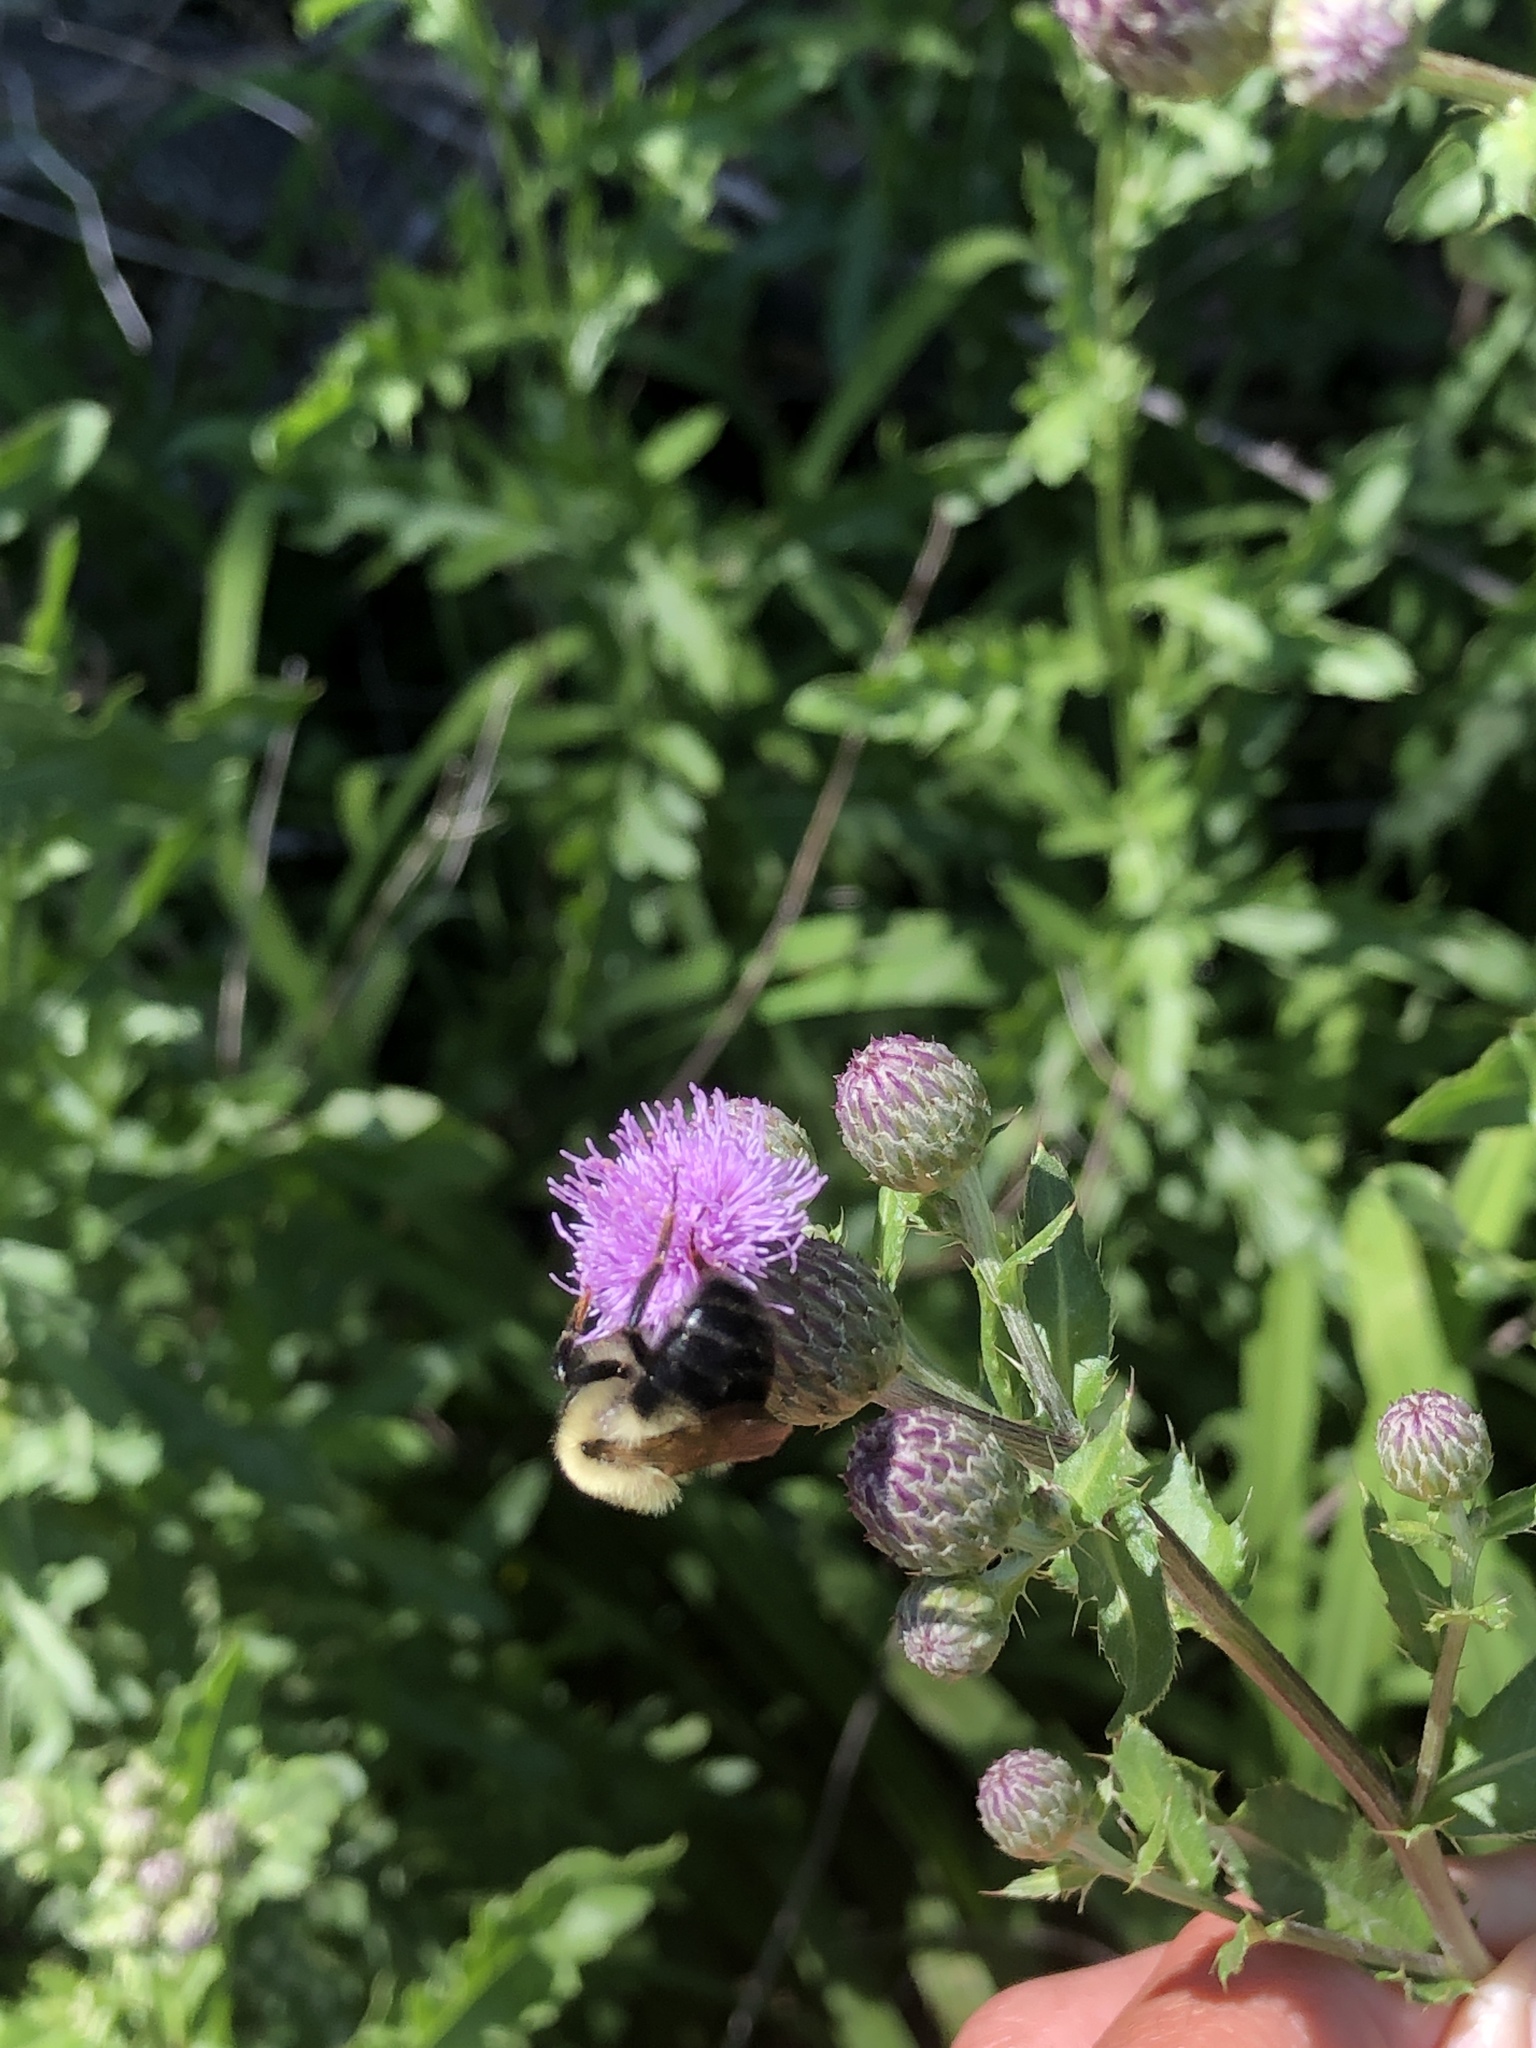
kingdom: Animalia
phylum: Arthropoda
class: Insecta
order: Hymenoptera
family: Apidae
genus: Bombus
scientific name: Bombus bimaculatus
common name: Two-spotted bumble bee
